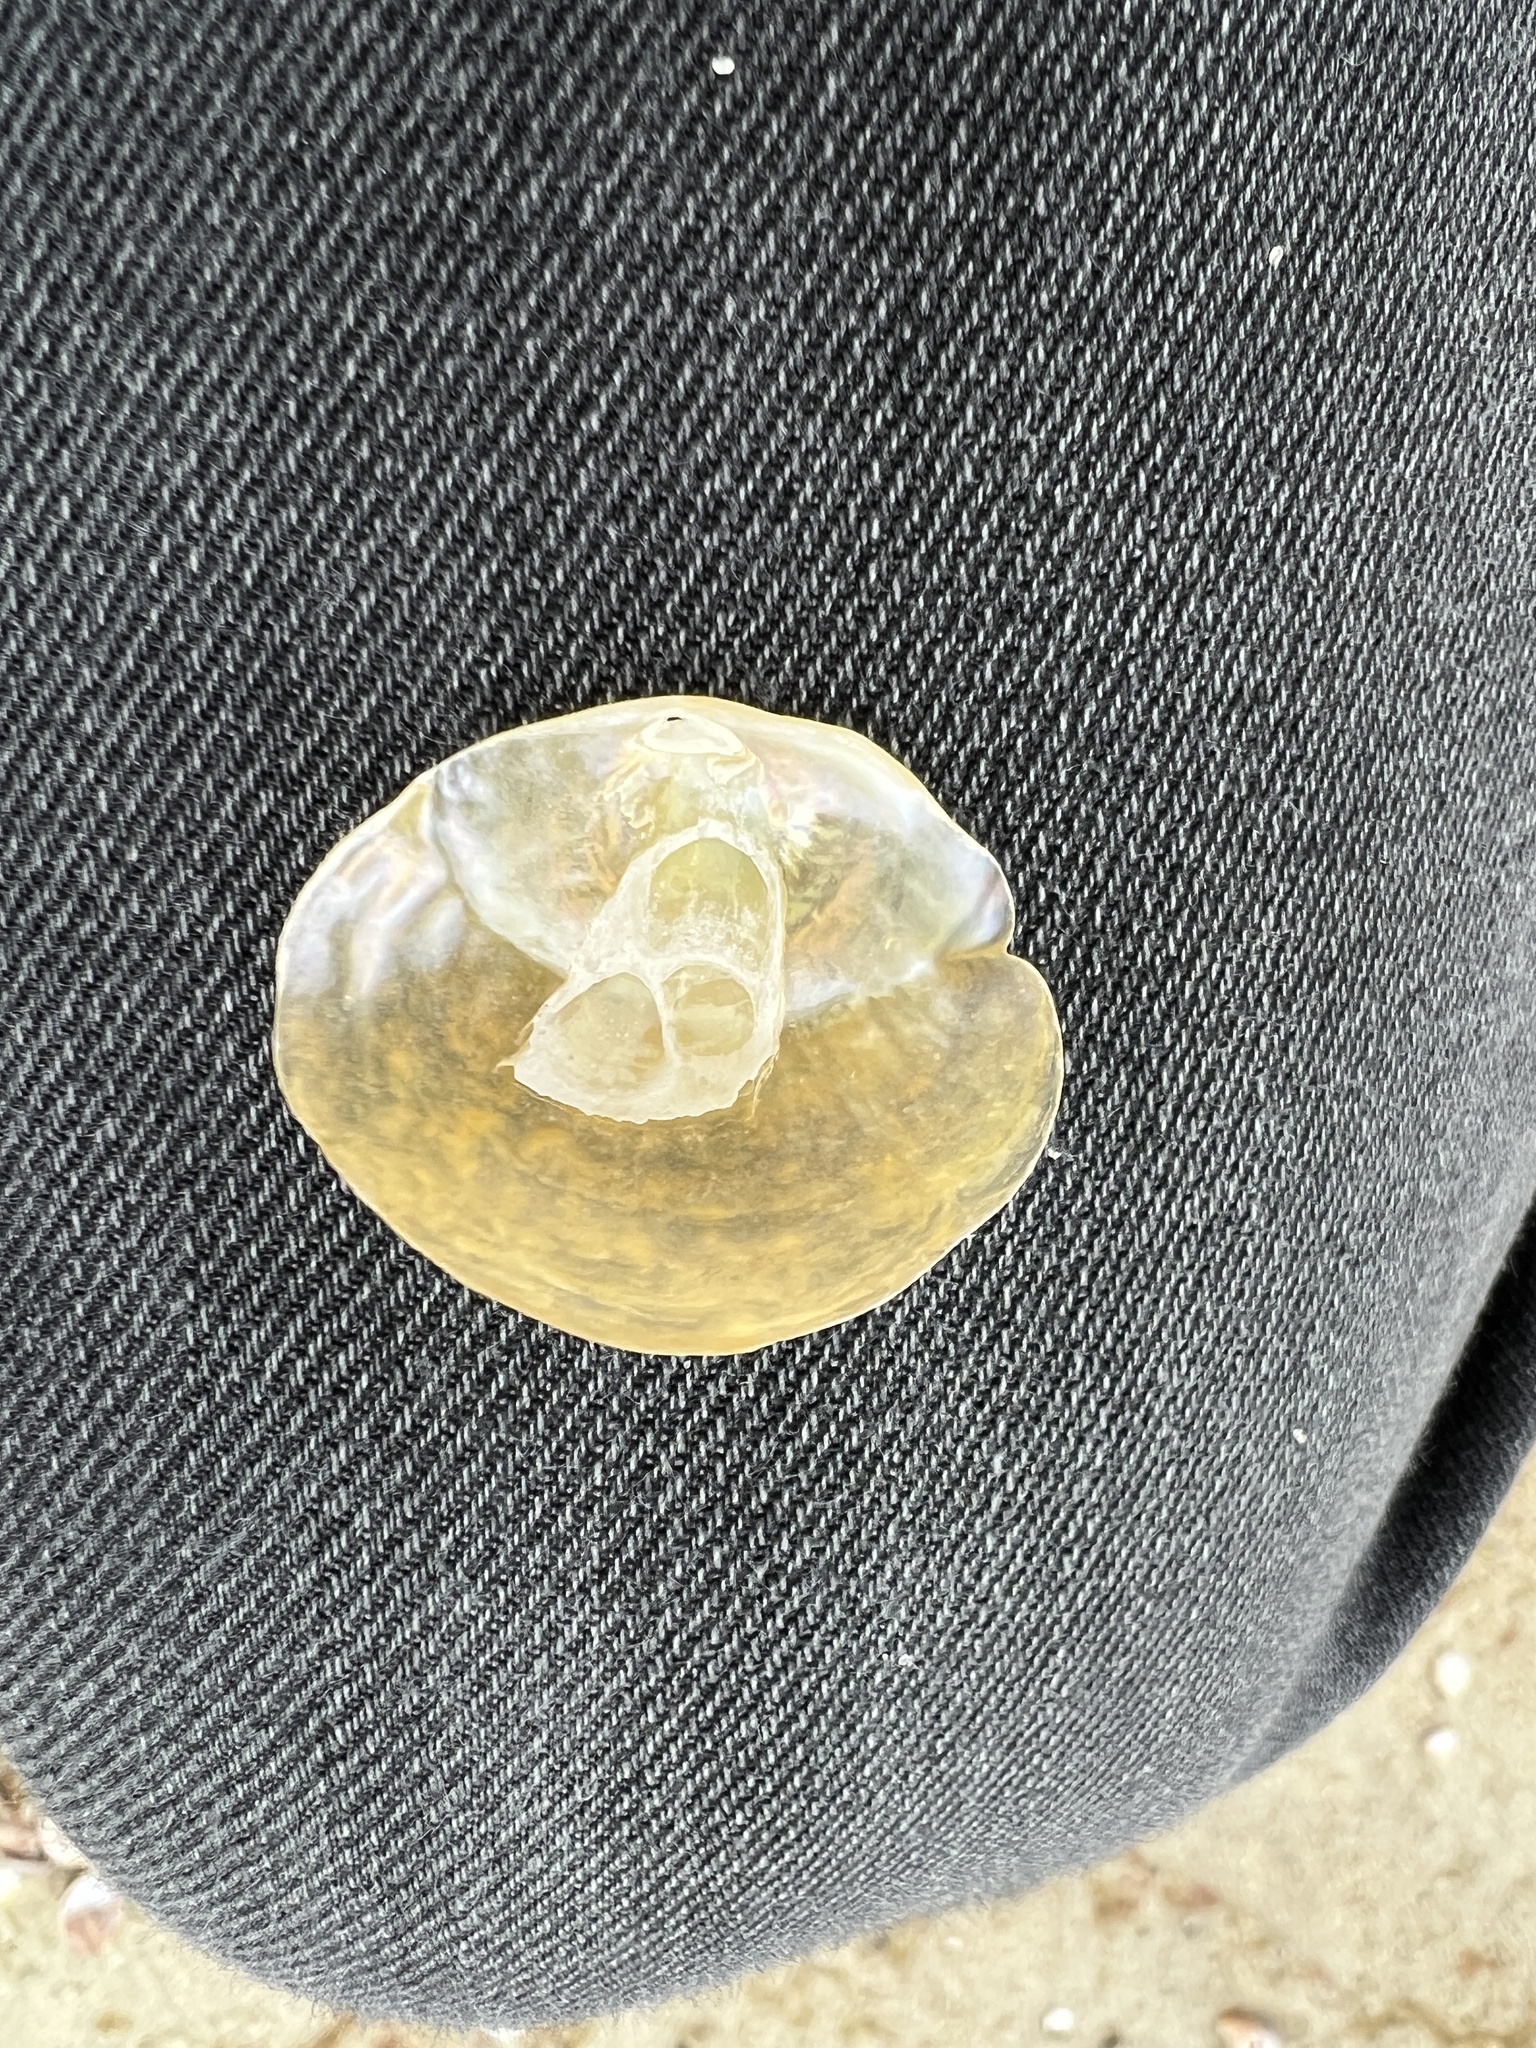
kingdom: Animalia
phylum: Mollusca
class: Bivalvia
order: Pectinida
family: Anomiidae
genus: Anomia
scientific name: Anomia simplex
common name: Common jingle shell
